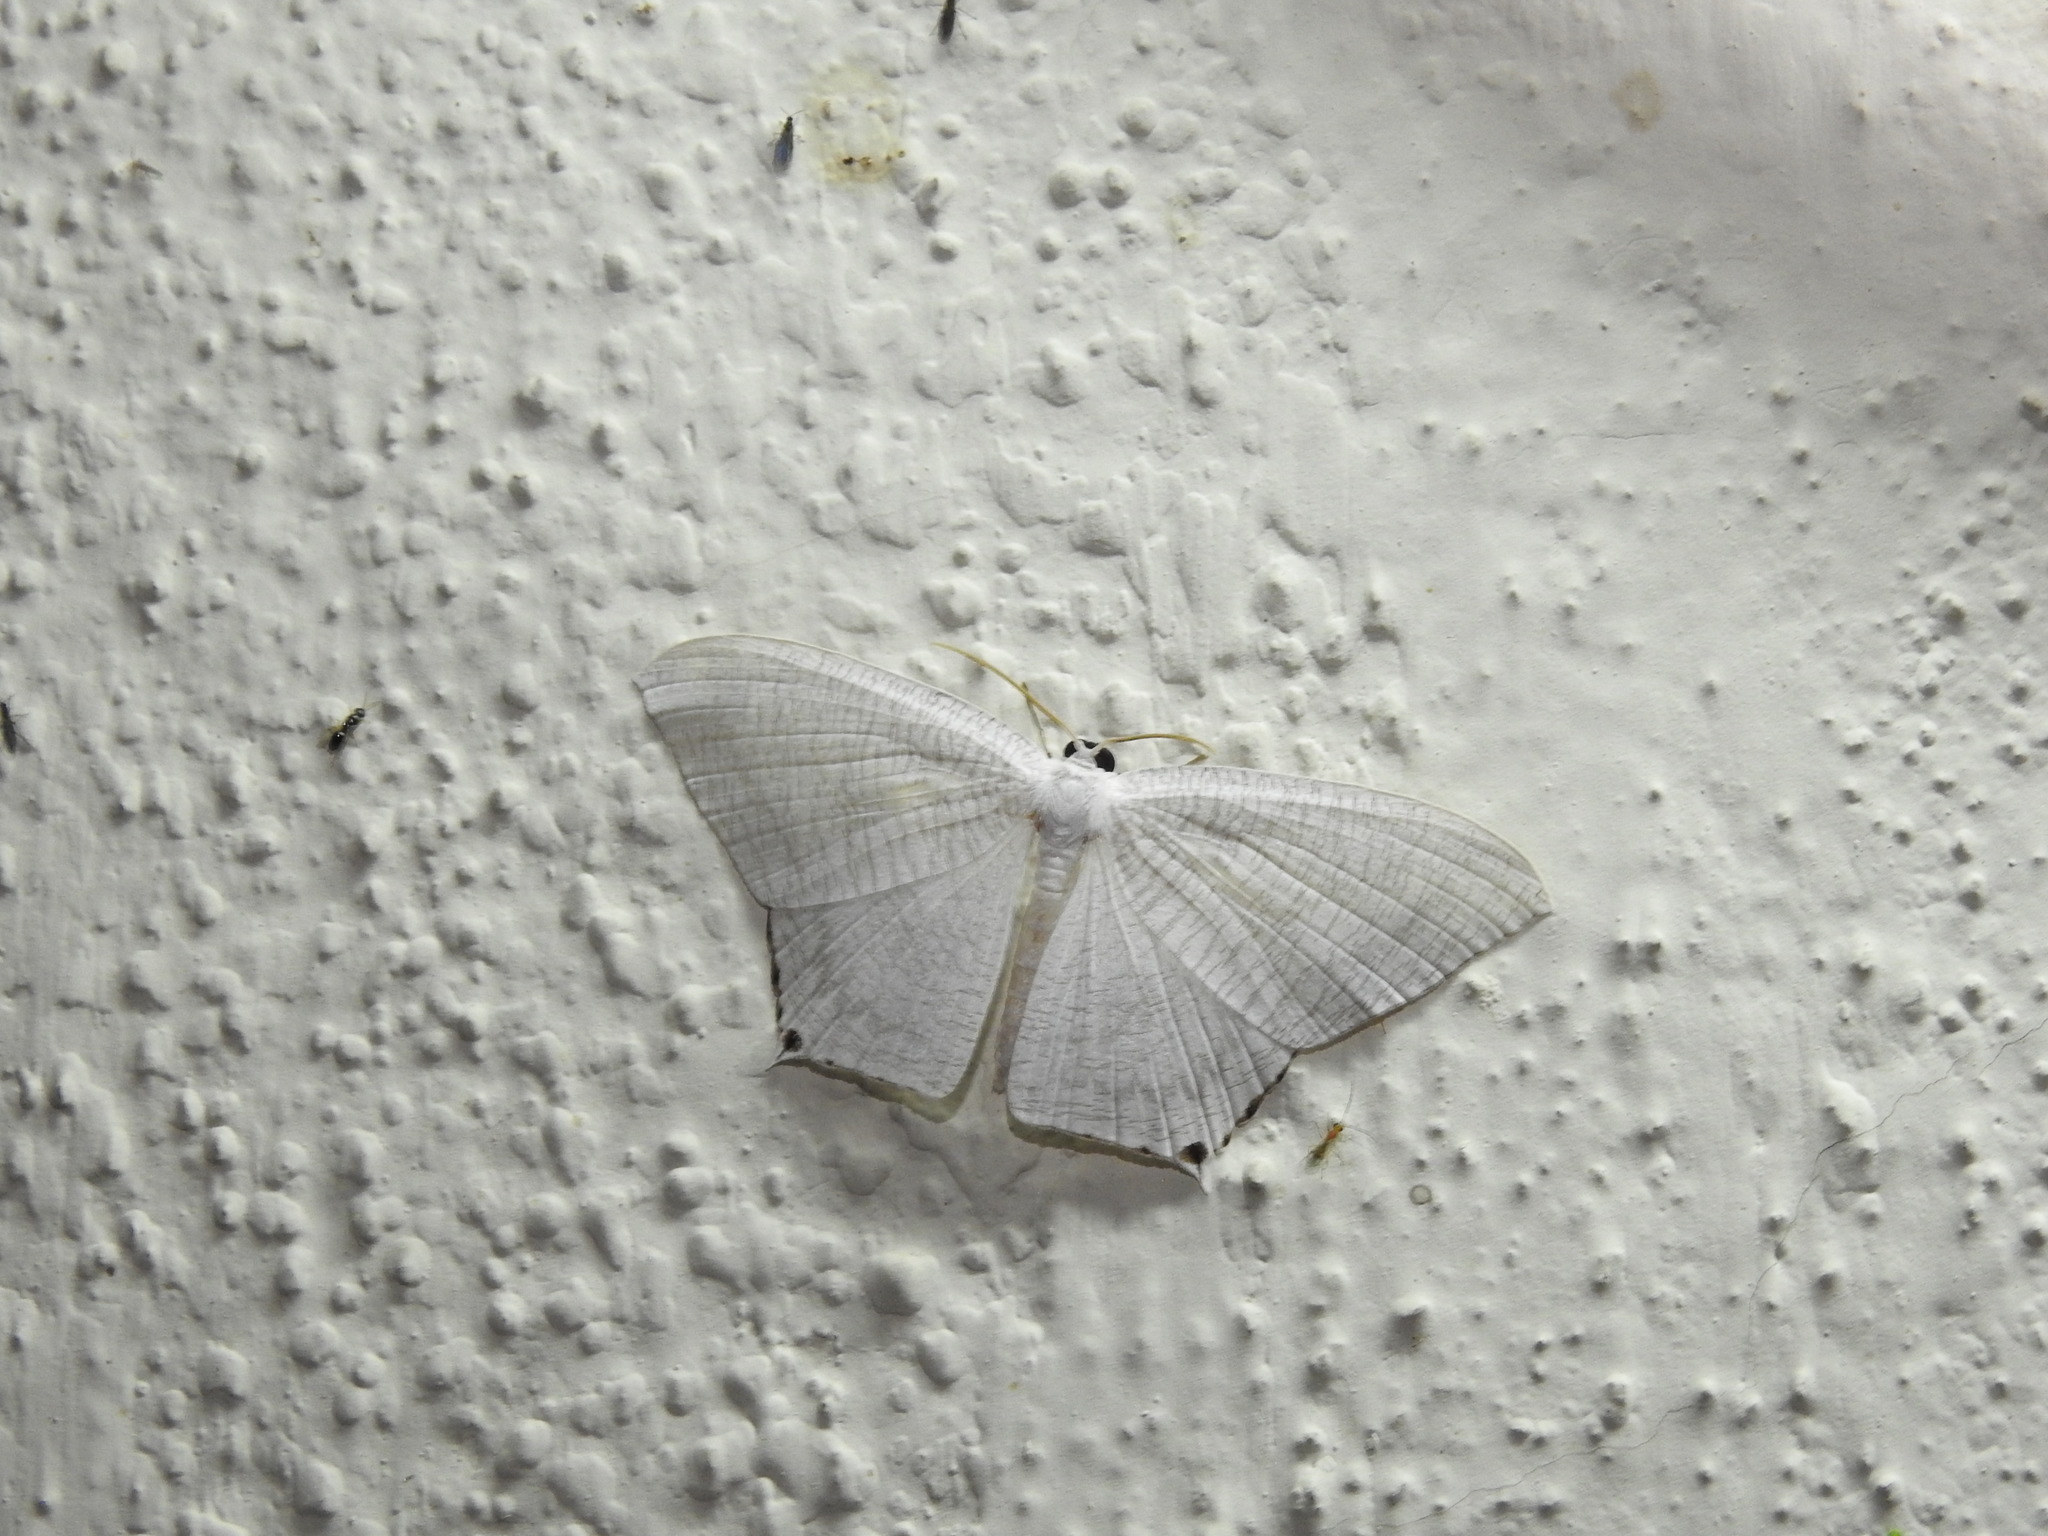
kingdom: Animalia
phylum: Arthropoda
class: Insecta
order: Lepidoptera
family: Uraniidae
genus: Micronia
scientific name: Micronia aculeata
